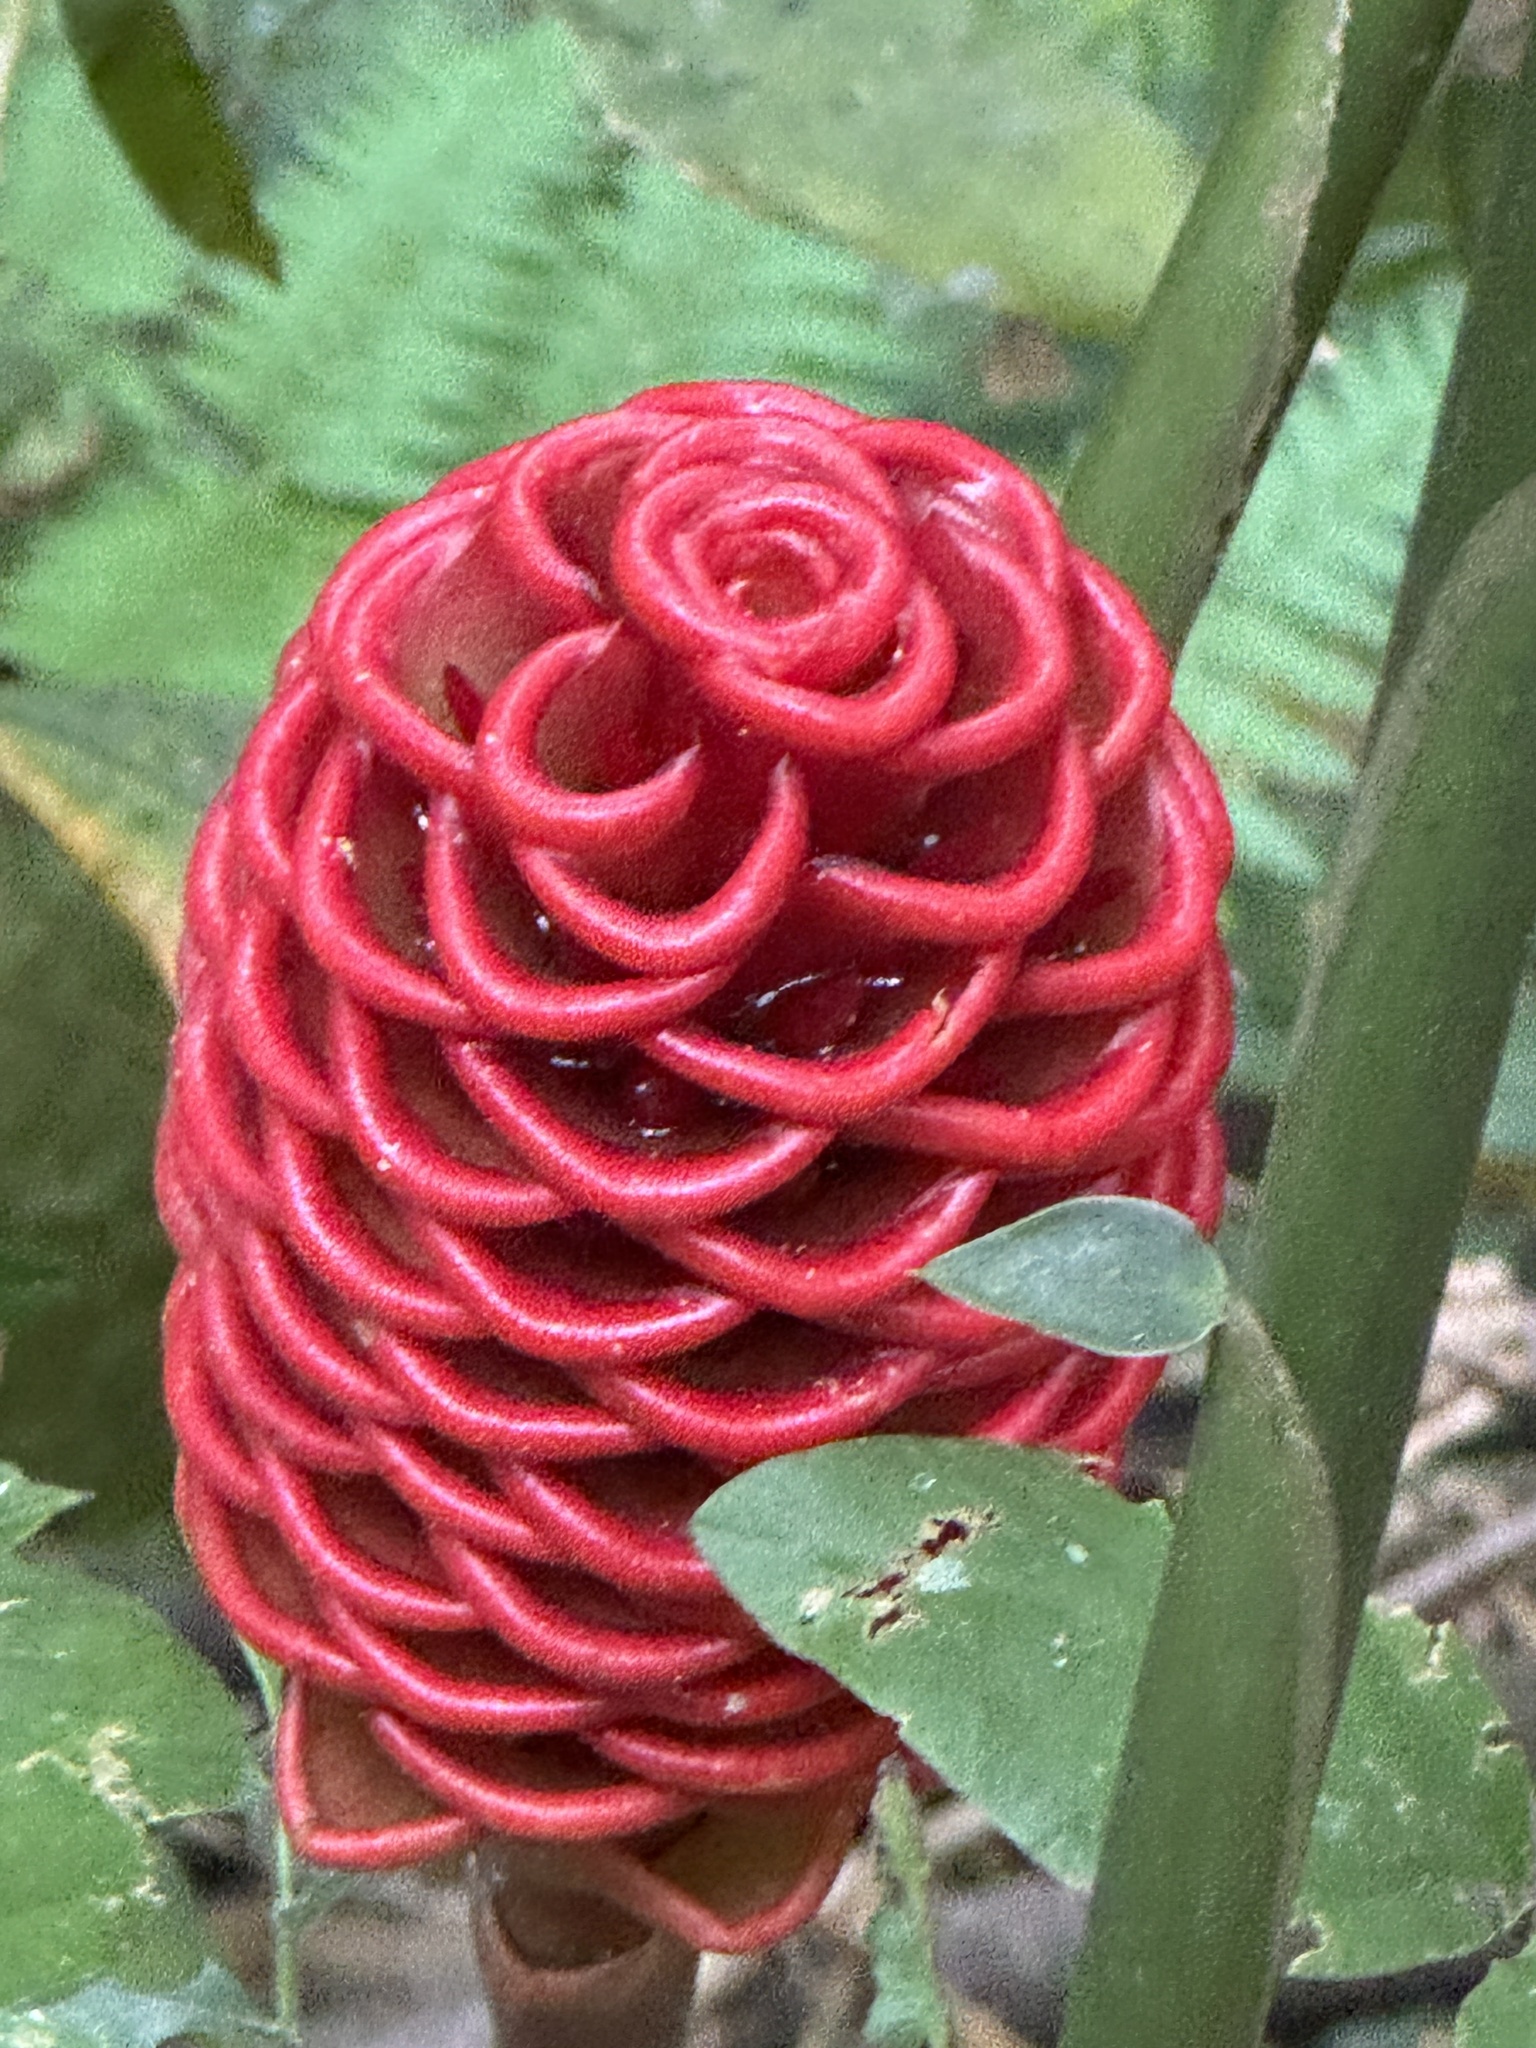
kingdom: Plantae
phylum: Tracheophyta
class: Liliopsida
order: Zingiberales
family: Zingiberaceae
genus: Zingiber
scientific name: Zingiber spectabile
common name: Beehive ginger
